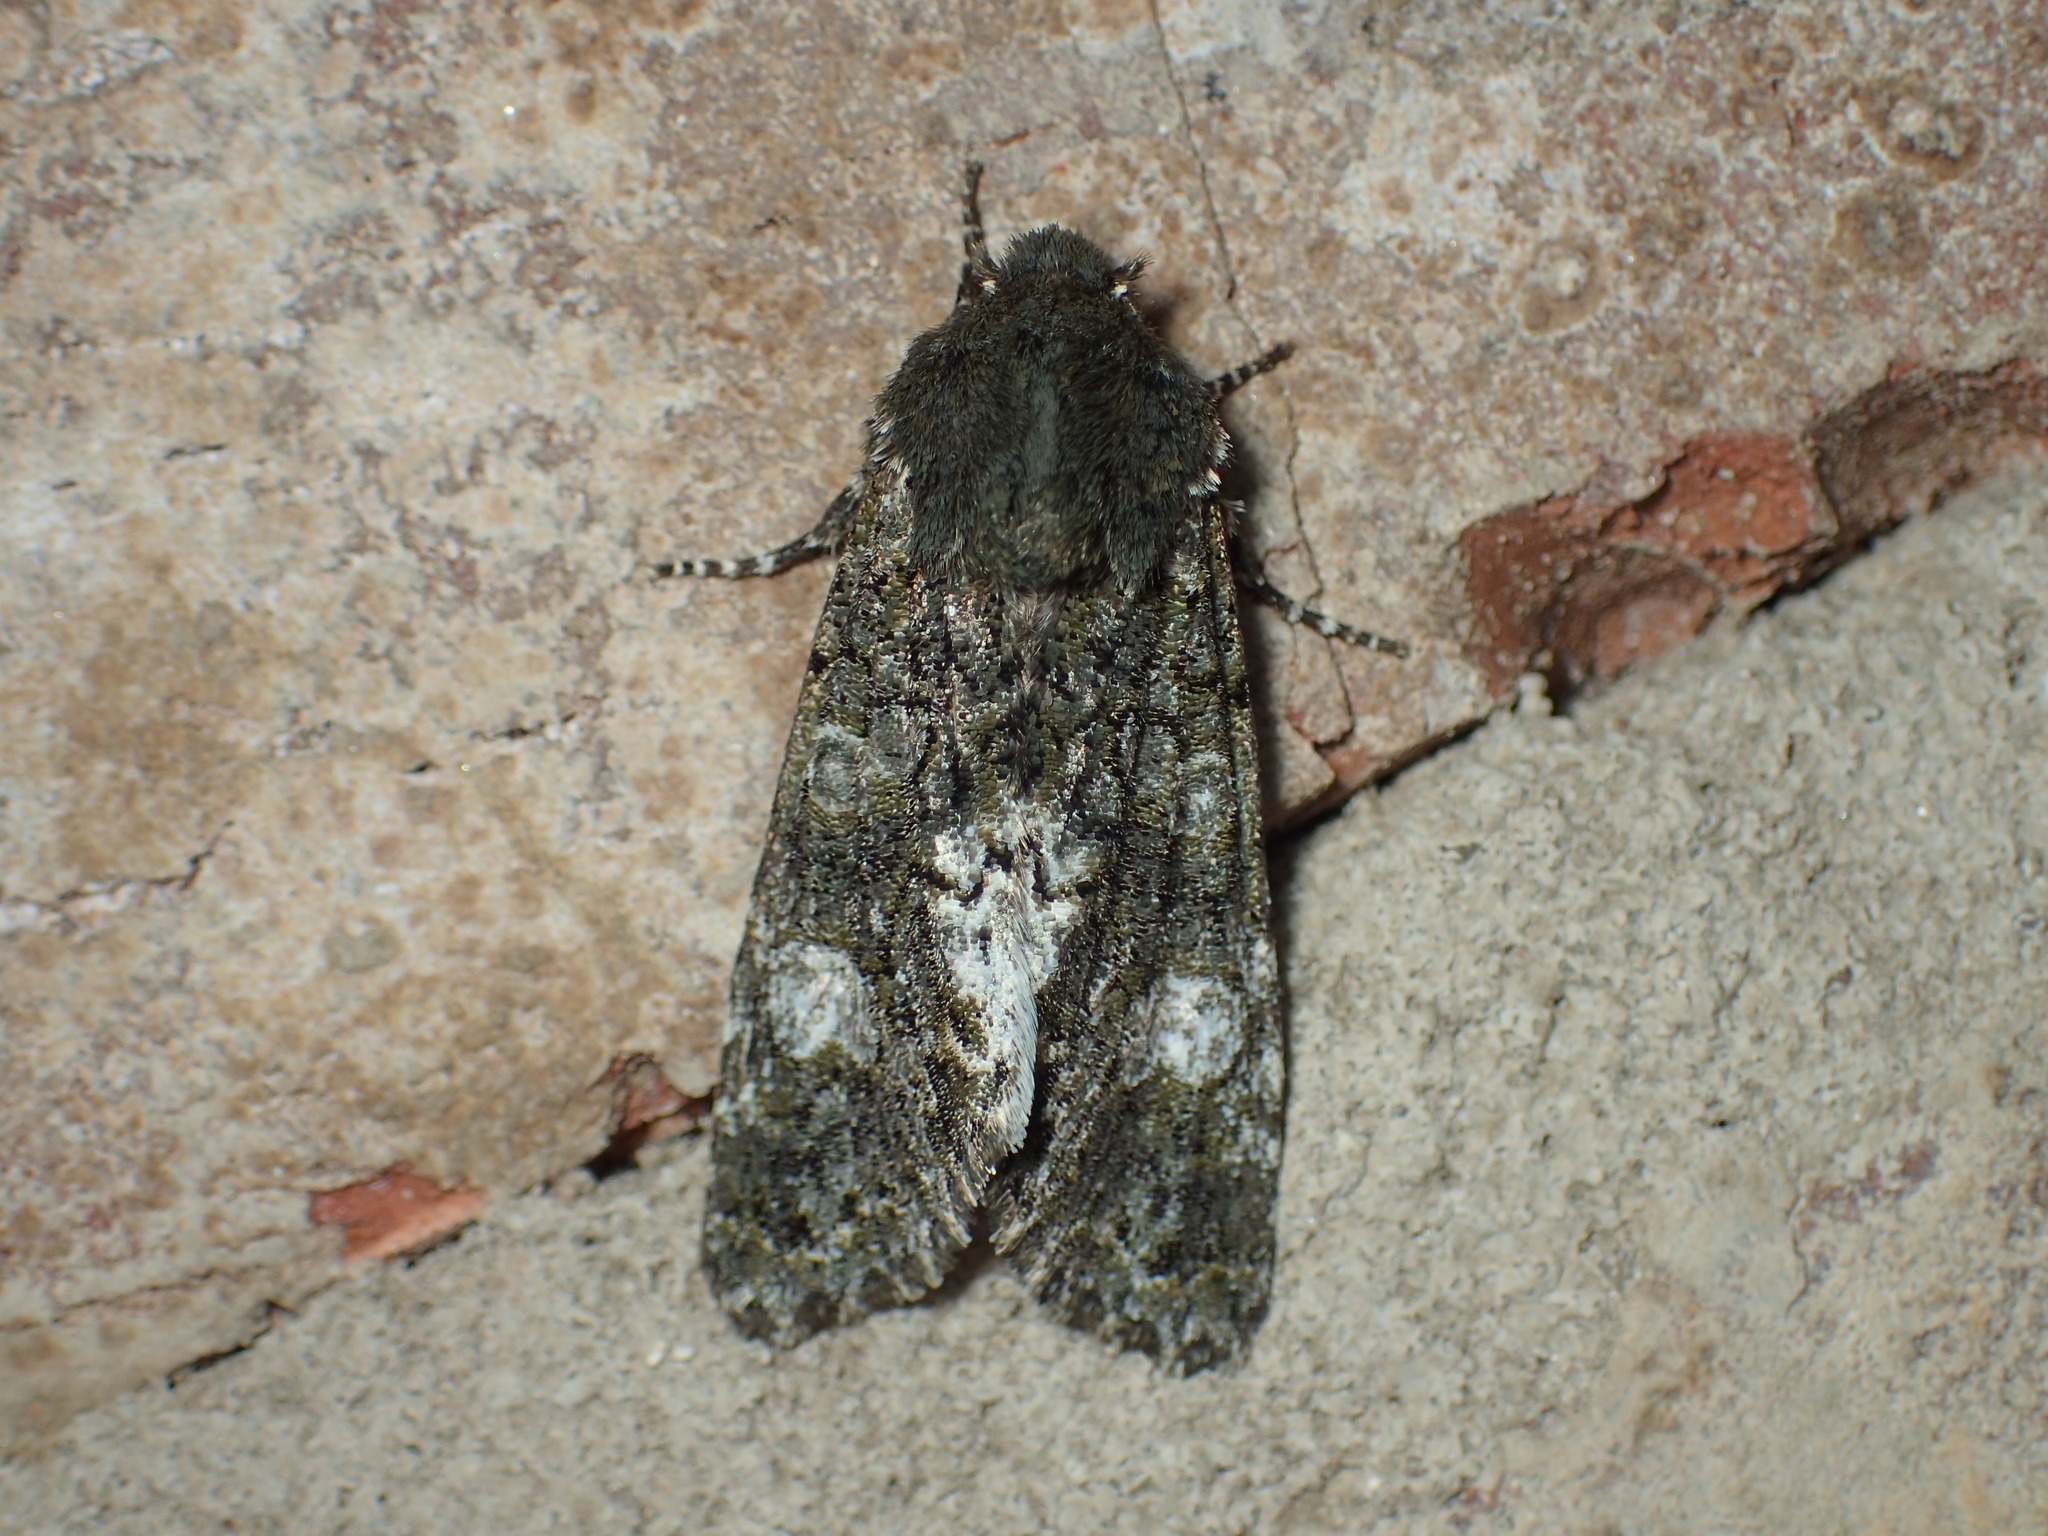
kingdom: Animalia
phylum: Arthropoda
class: Insecta
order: Lepidoptera
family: Noctuidae
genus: Phosphila
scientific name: Phosphila miselioides
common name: Spotted phosphila moth
